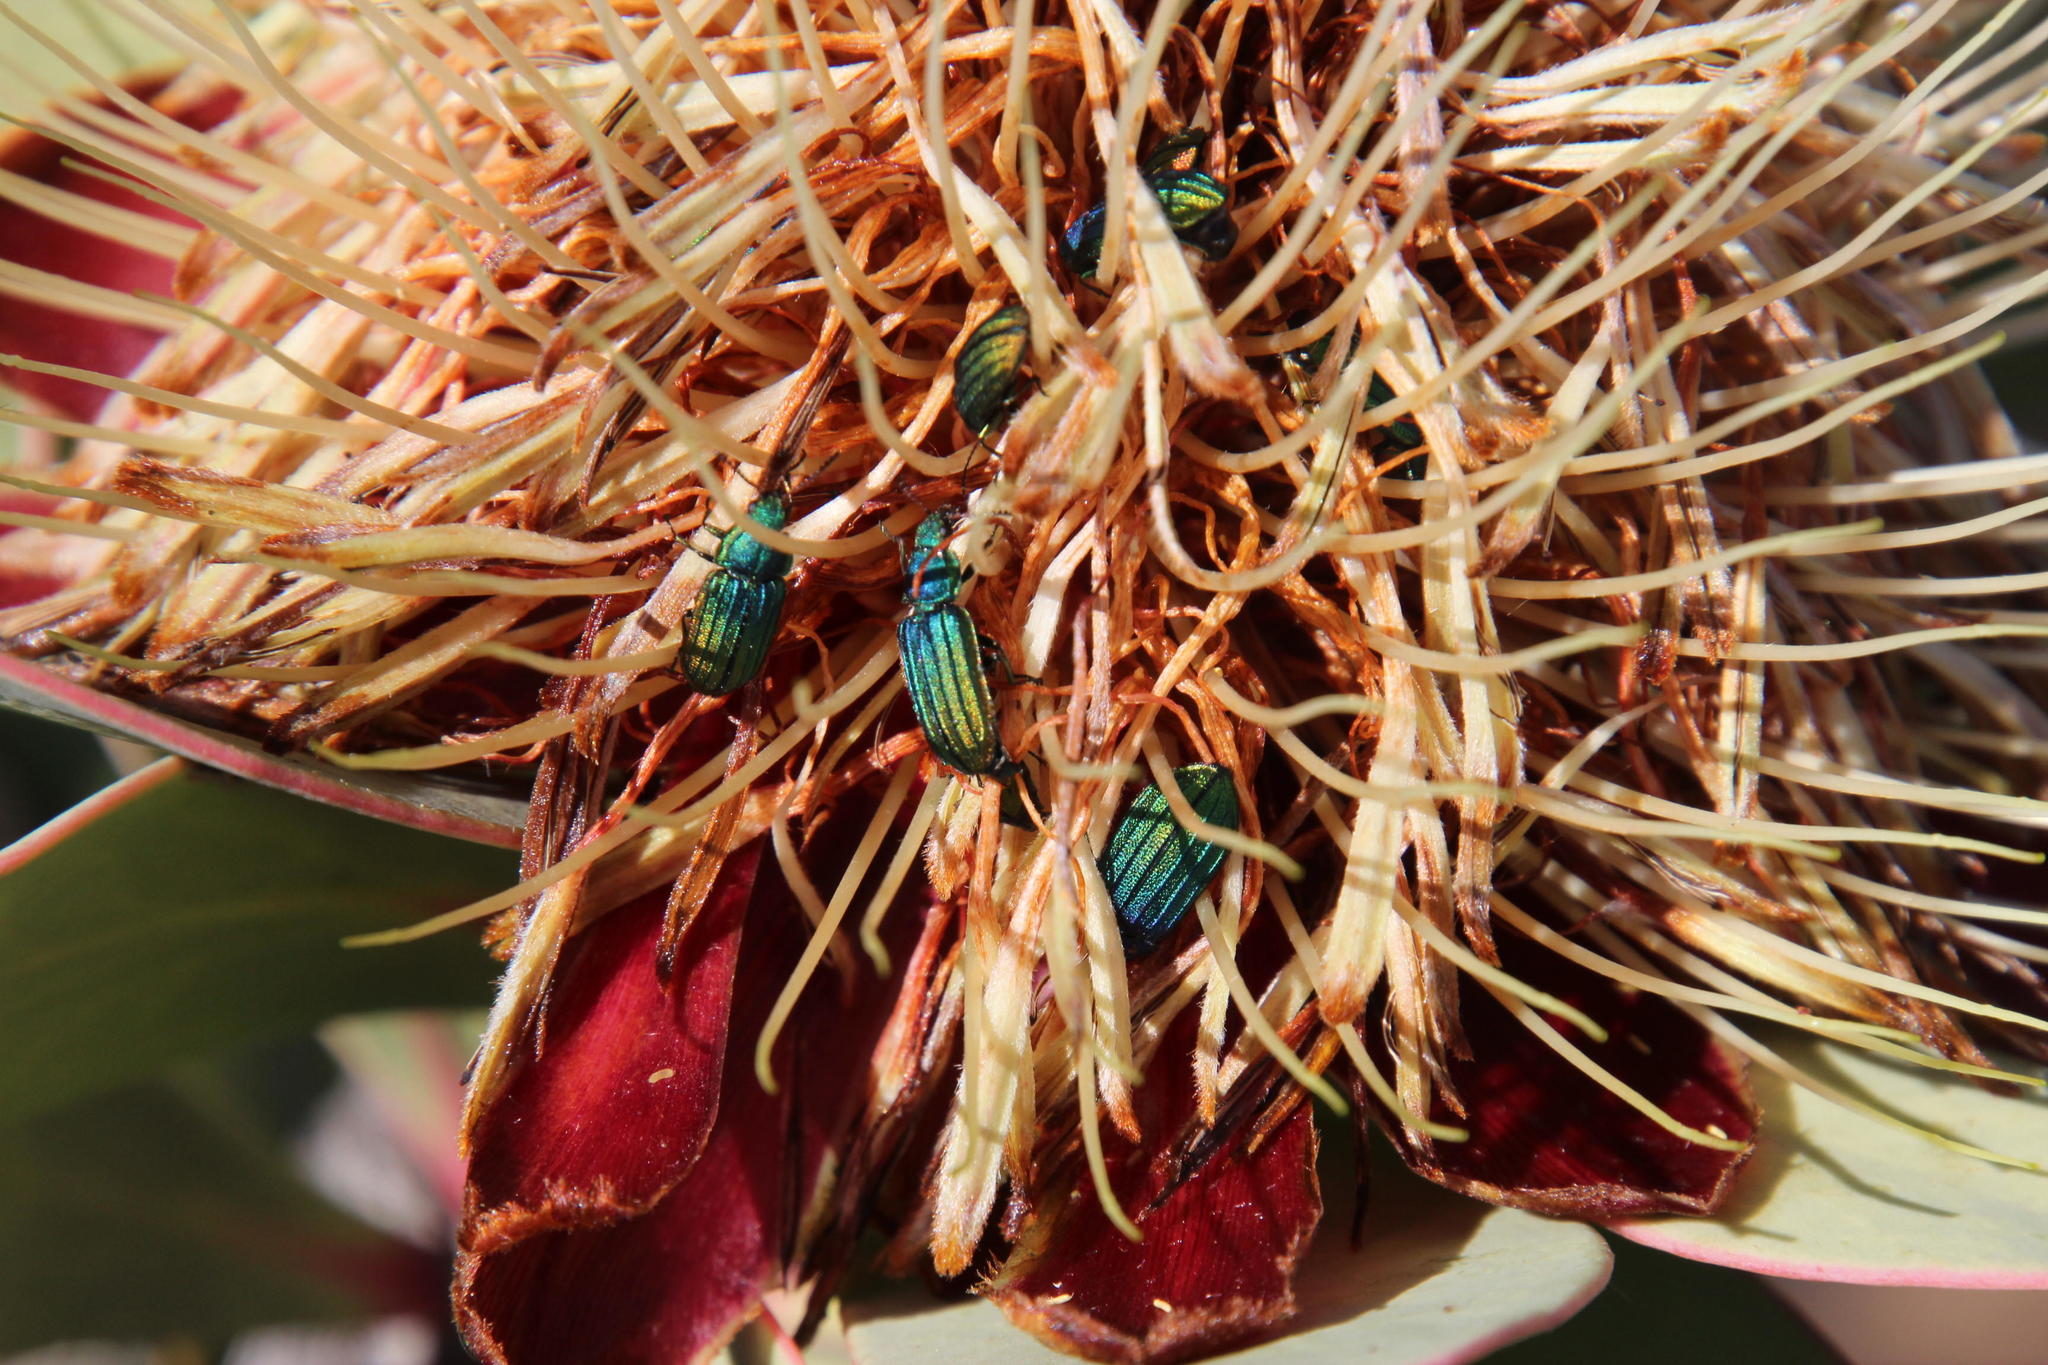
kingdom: Plantae
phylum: Tracheophyta
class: Magnoliopsida
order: Proteales
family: Proteaceae
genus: Protea
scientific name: Protea glabra
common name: Chestnut sugarbush
